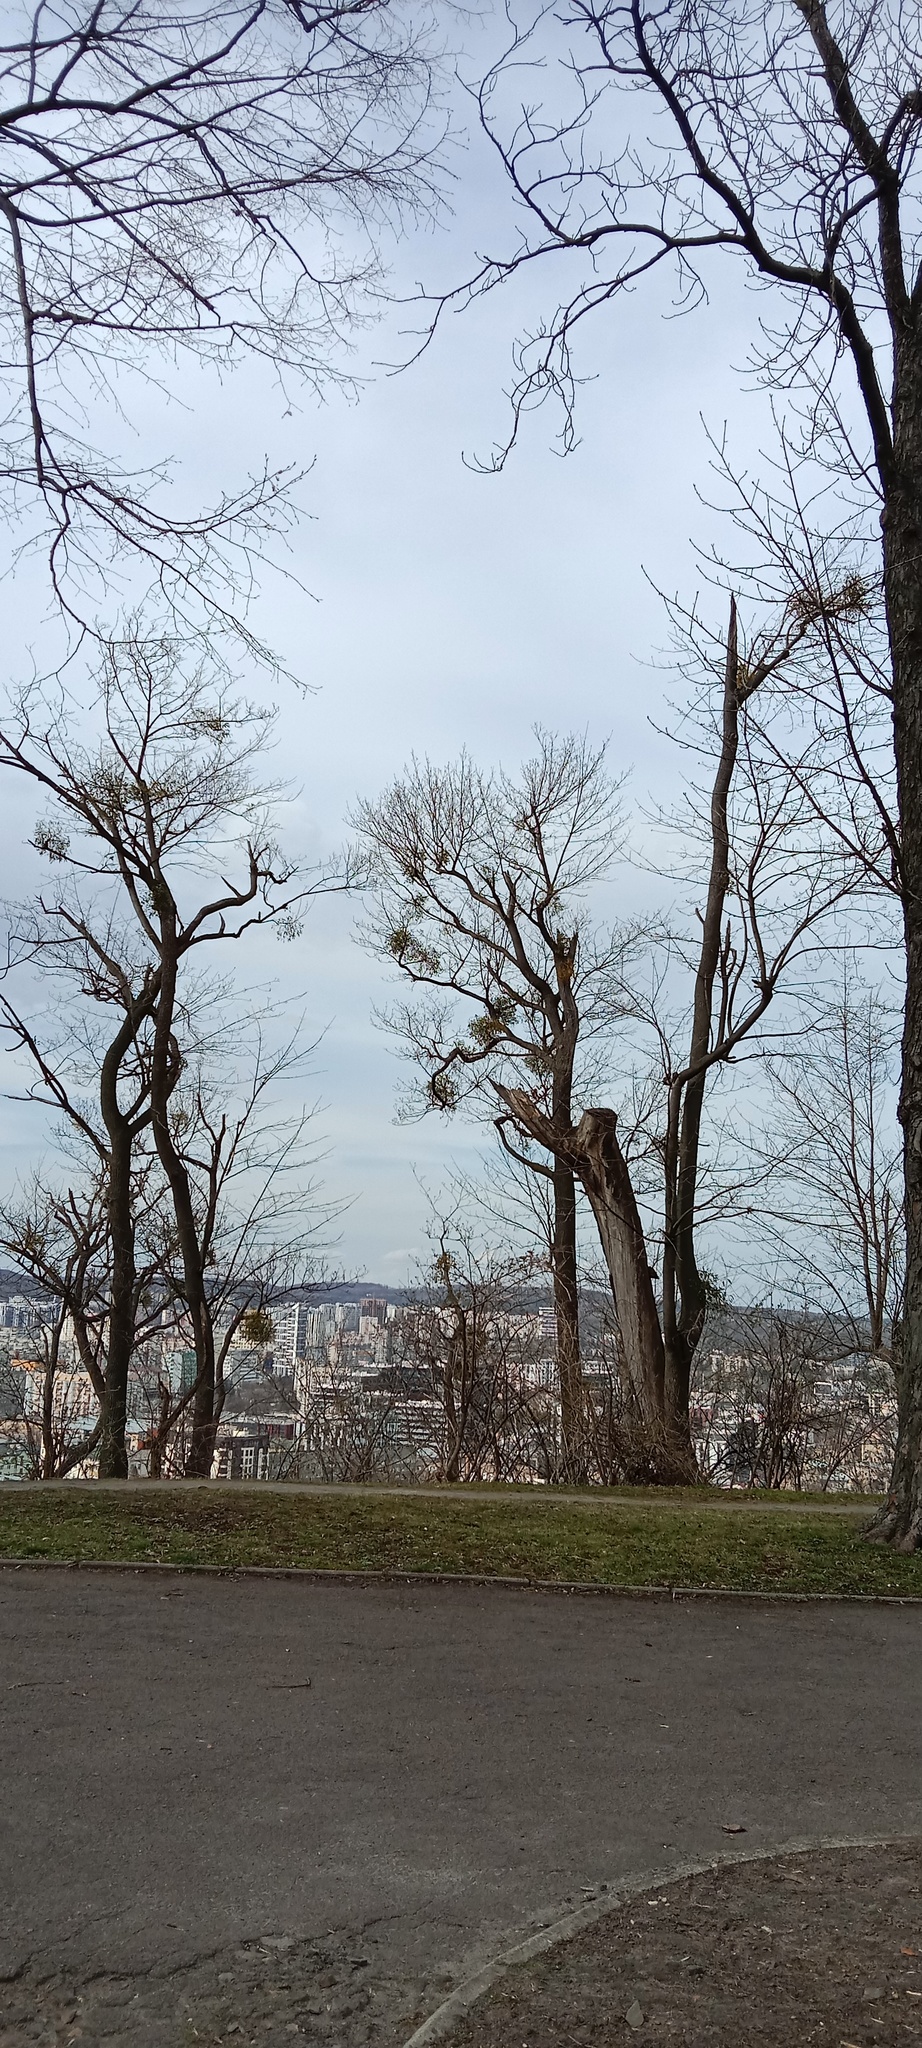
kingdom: Plantae
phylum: Tracheophyta
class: Magnoliopsida
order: Santalales
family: Viscaceae
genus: Viscum
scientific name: Viscum album
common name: Mistletoe
